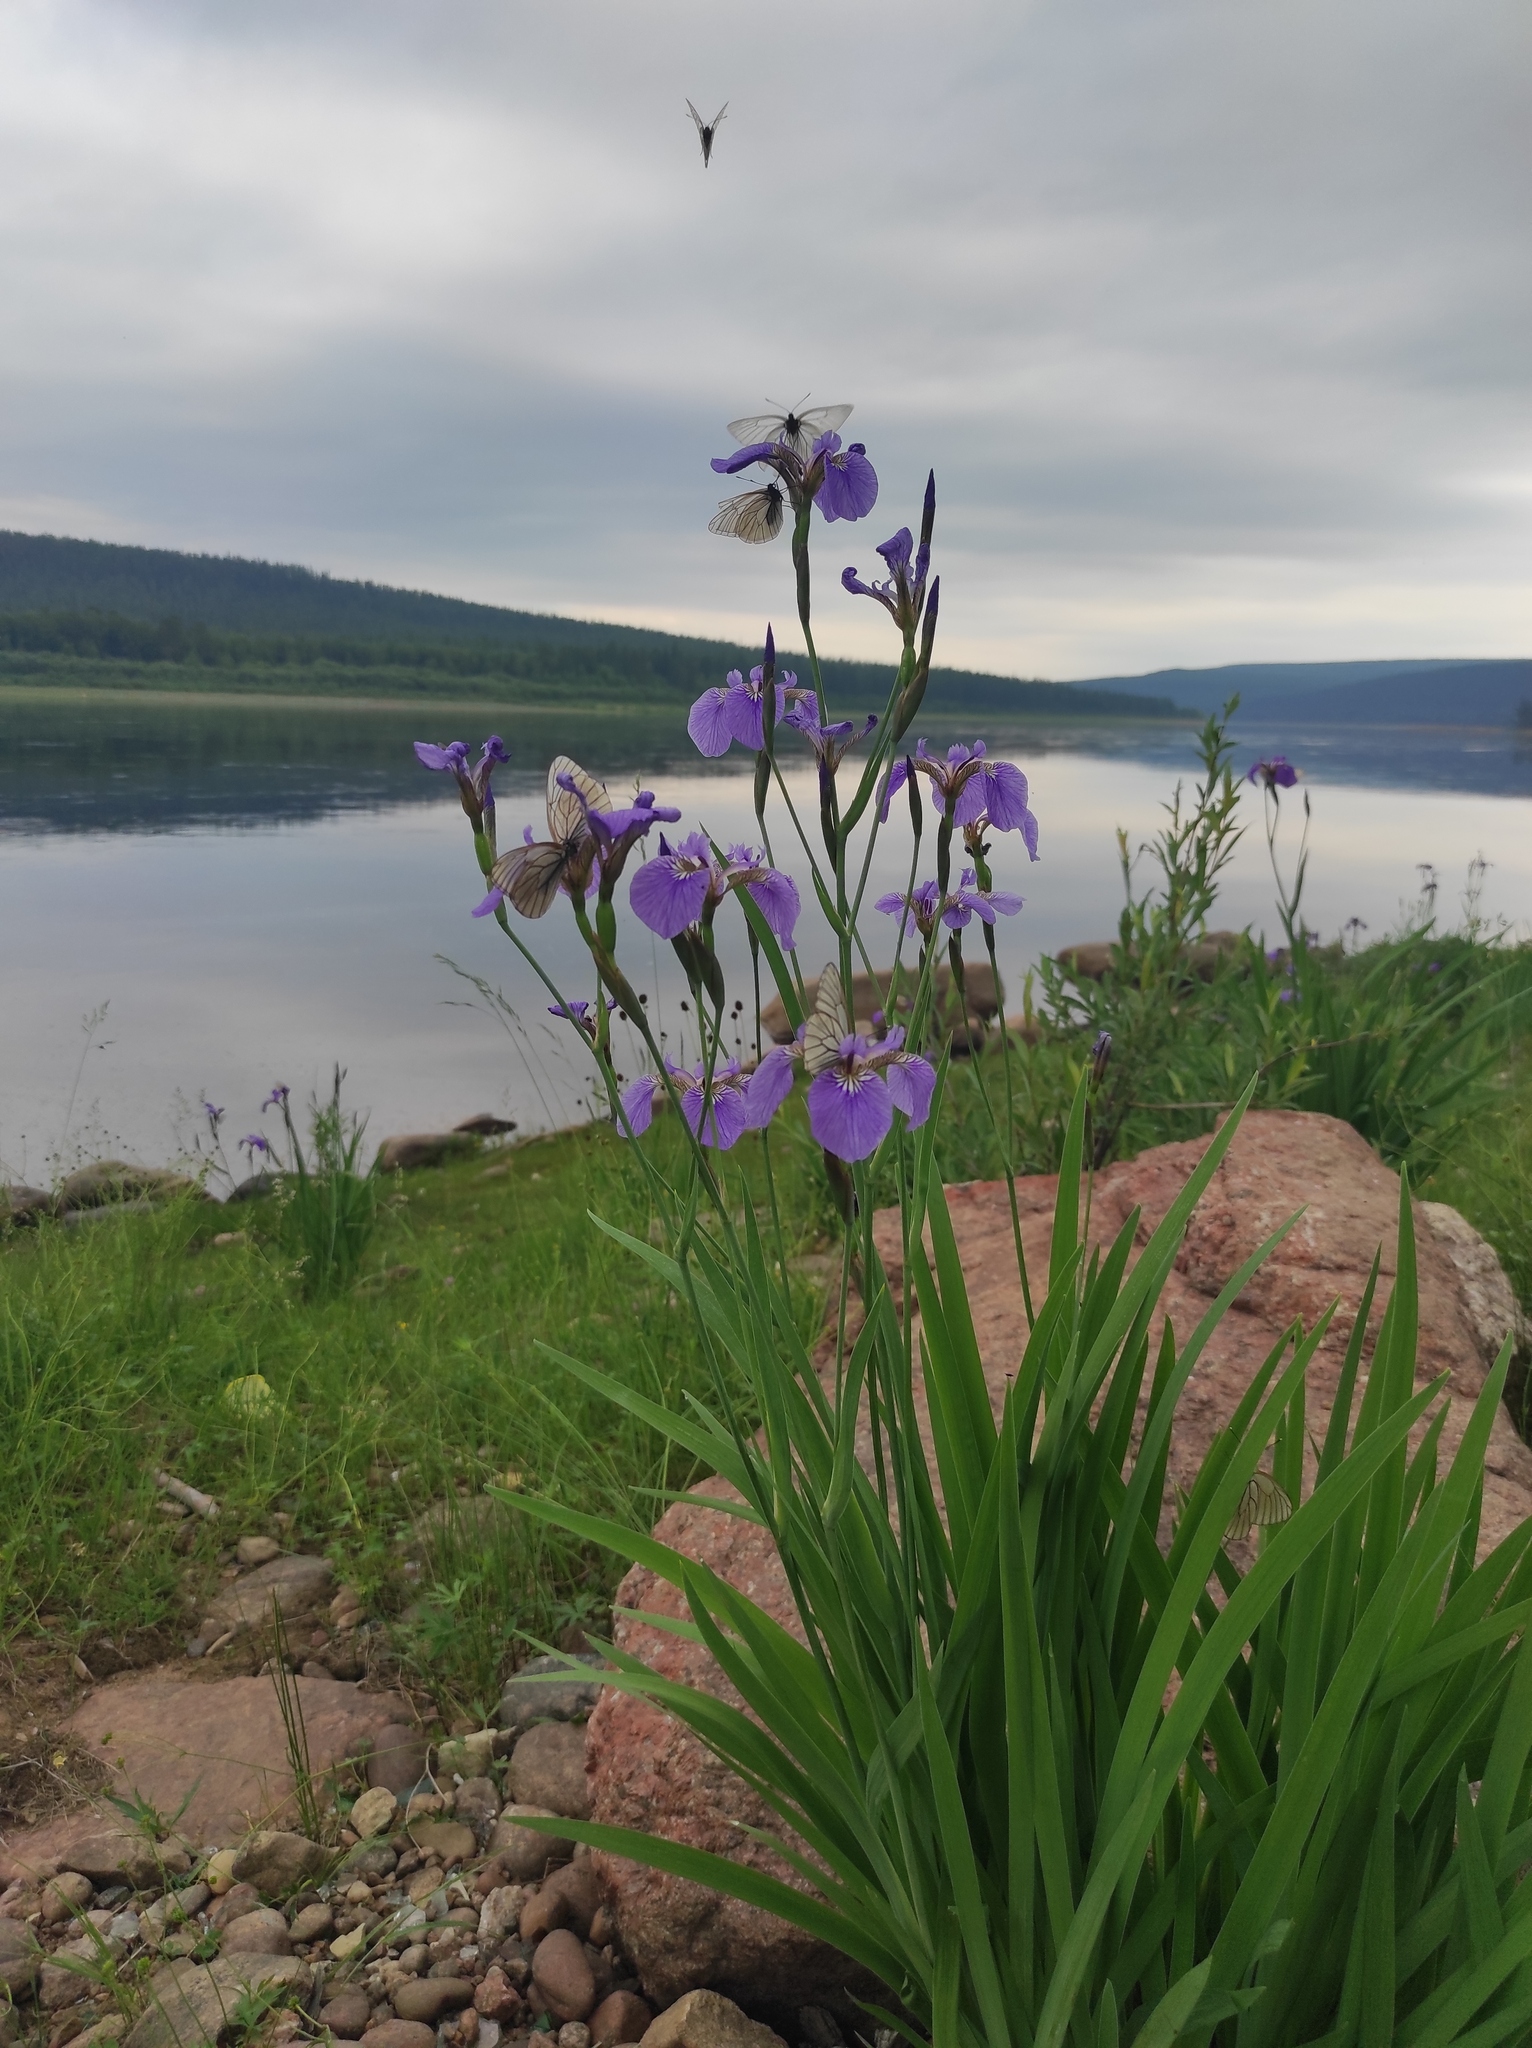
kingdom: Plantae
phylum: Tracheophyta
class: Liliopsida
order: Asparagales
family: Iridaceae
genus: Iris
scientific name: Iris setosa
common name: Arctic blue flag
